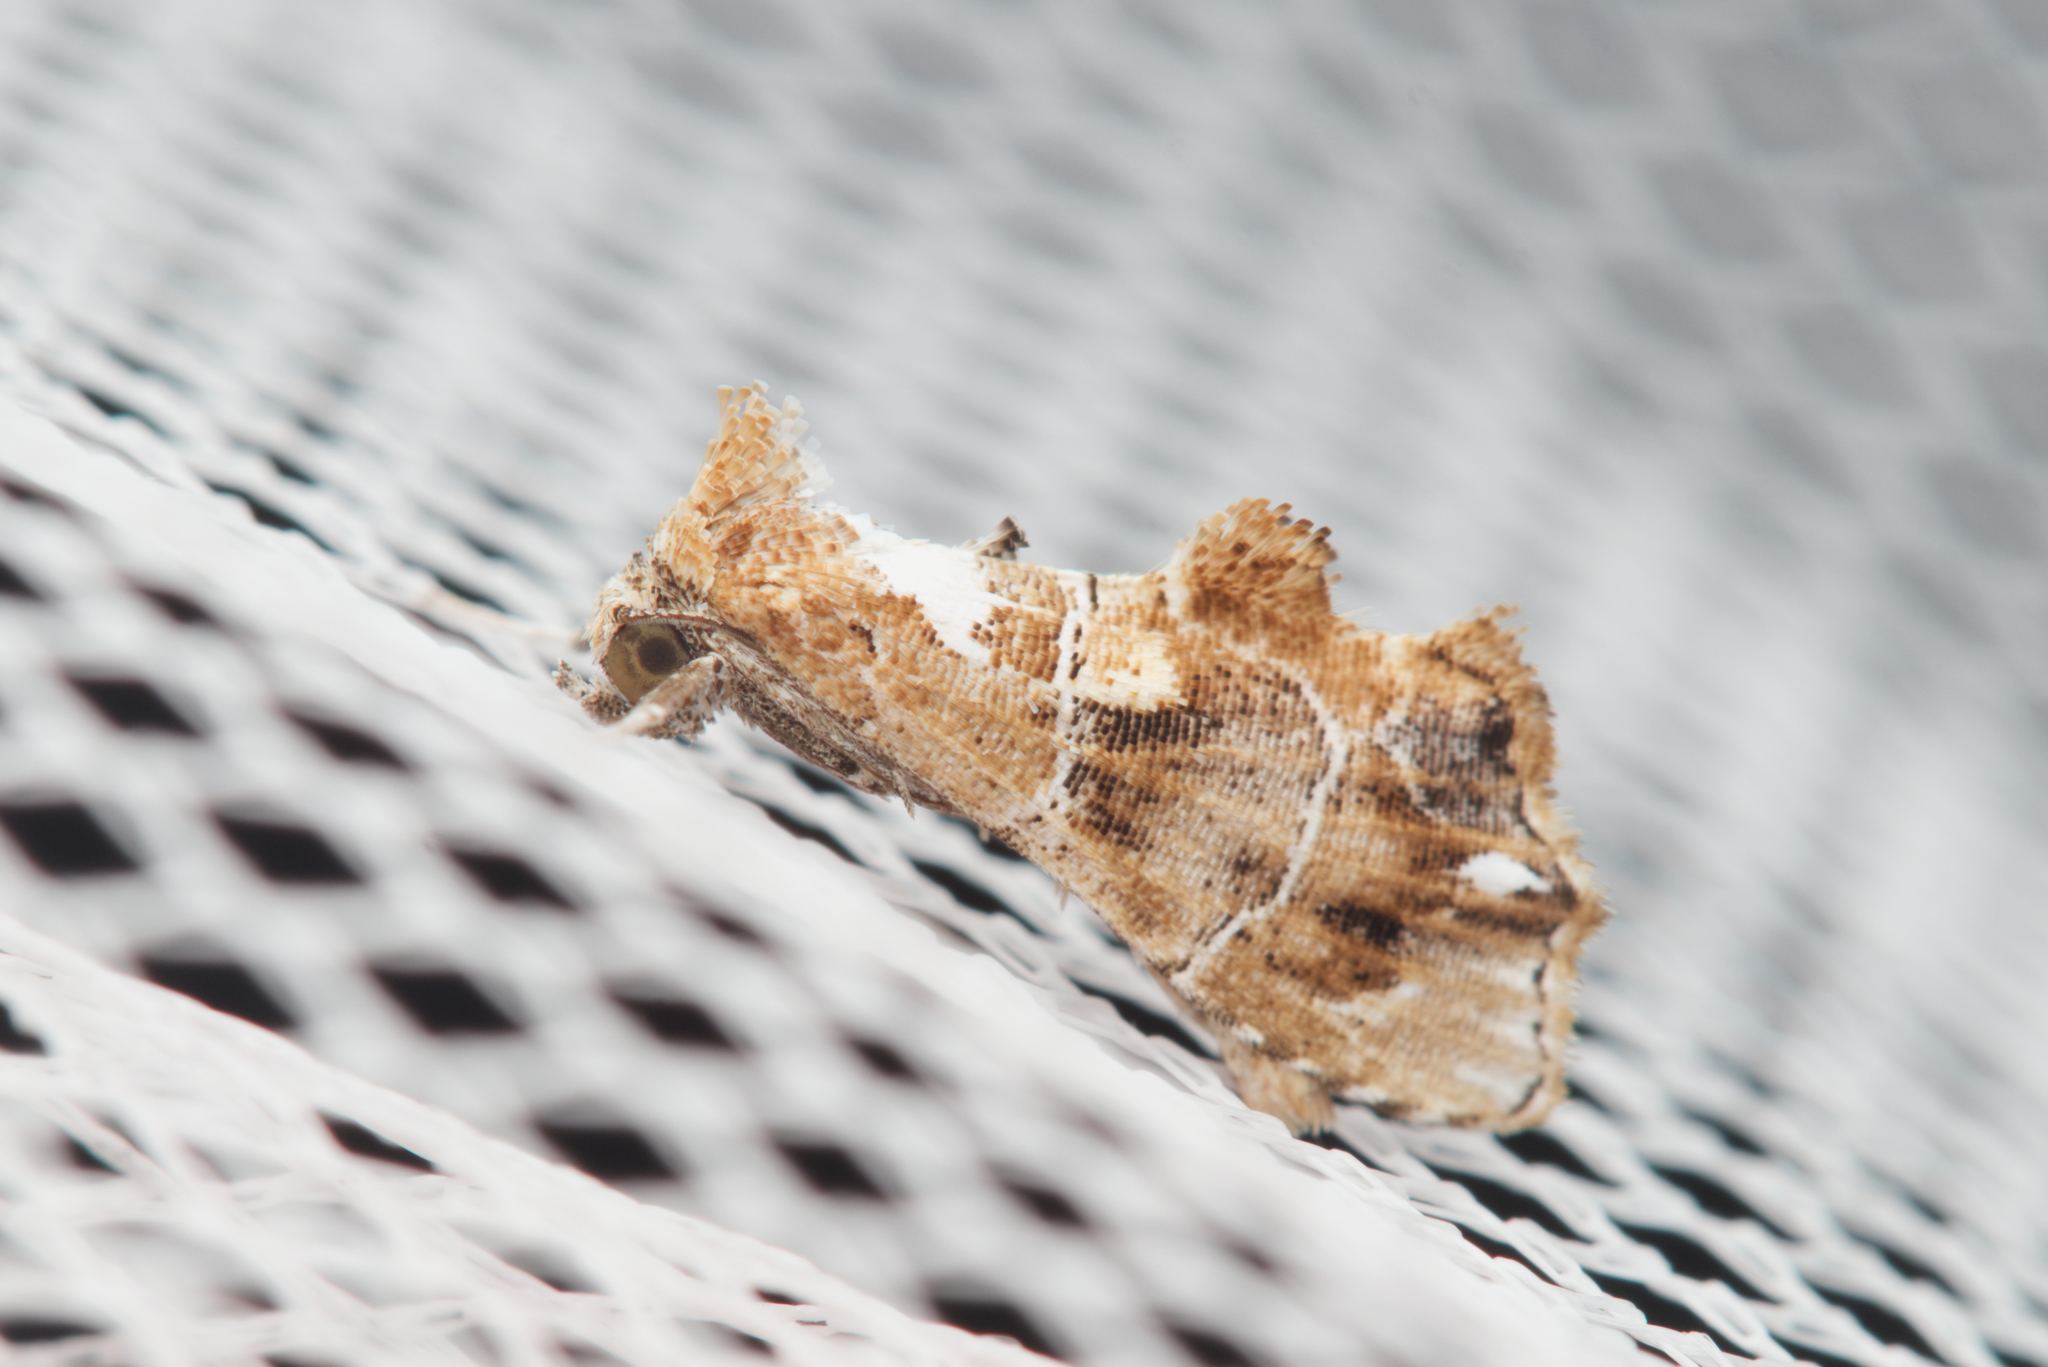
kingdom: Animalia
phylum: Arthropoda
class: Insecta
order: Lepidoptera
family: Erebidae
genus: Arrade
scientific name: Arrade leucocosmalis
